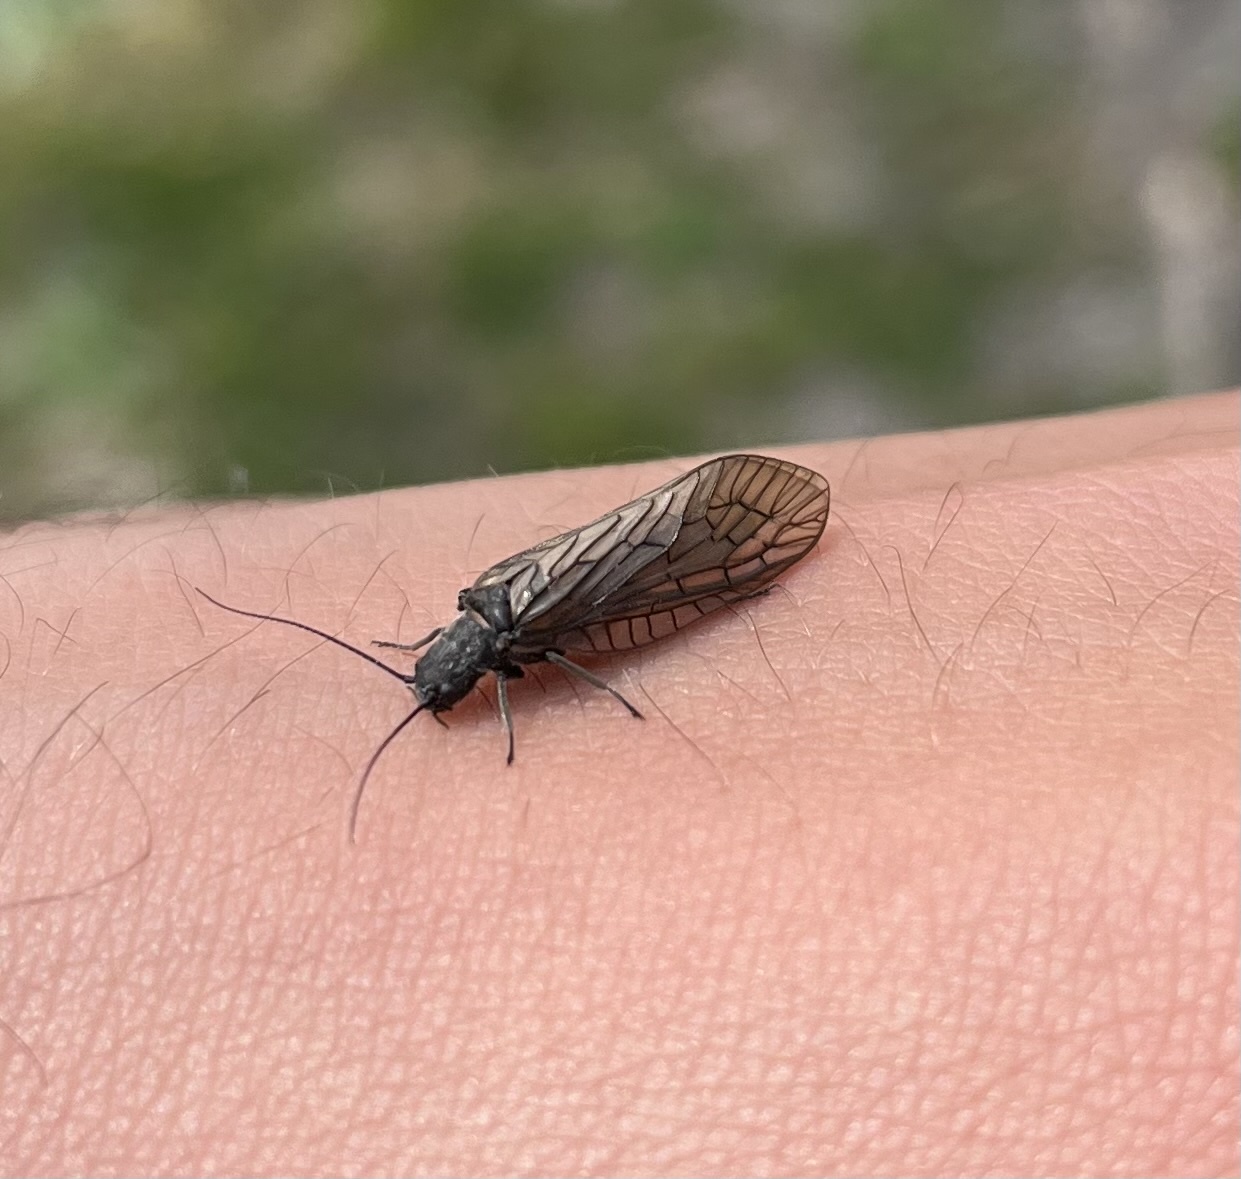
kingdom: Animalia
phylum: Arthropoda
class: Insecta
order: Megaloptera
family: Sialidae
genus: Sialis
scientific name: Sialis
